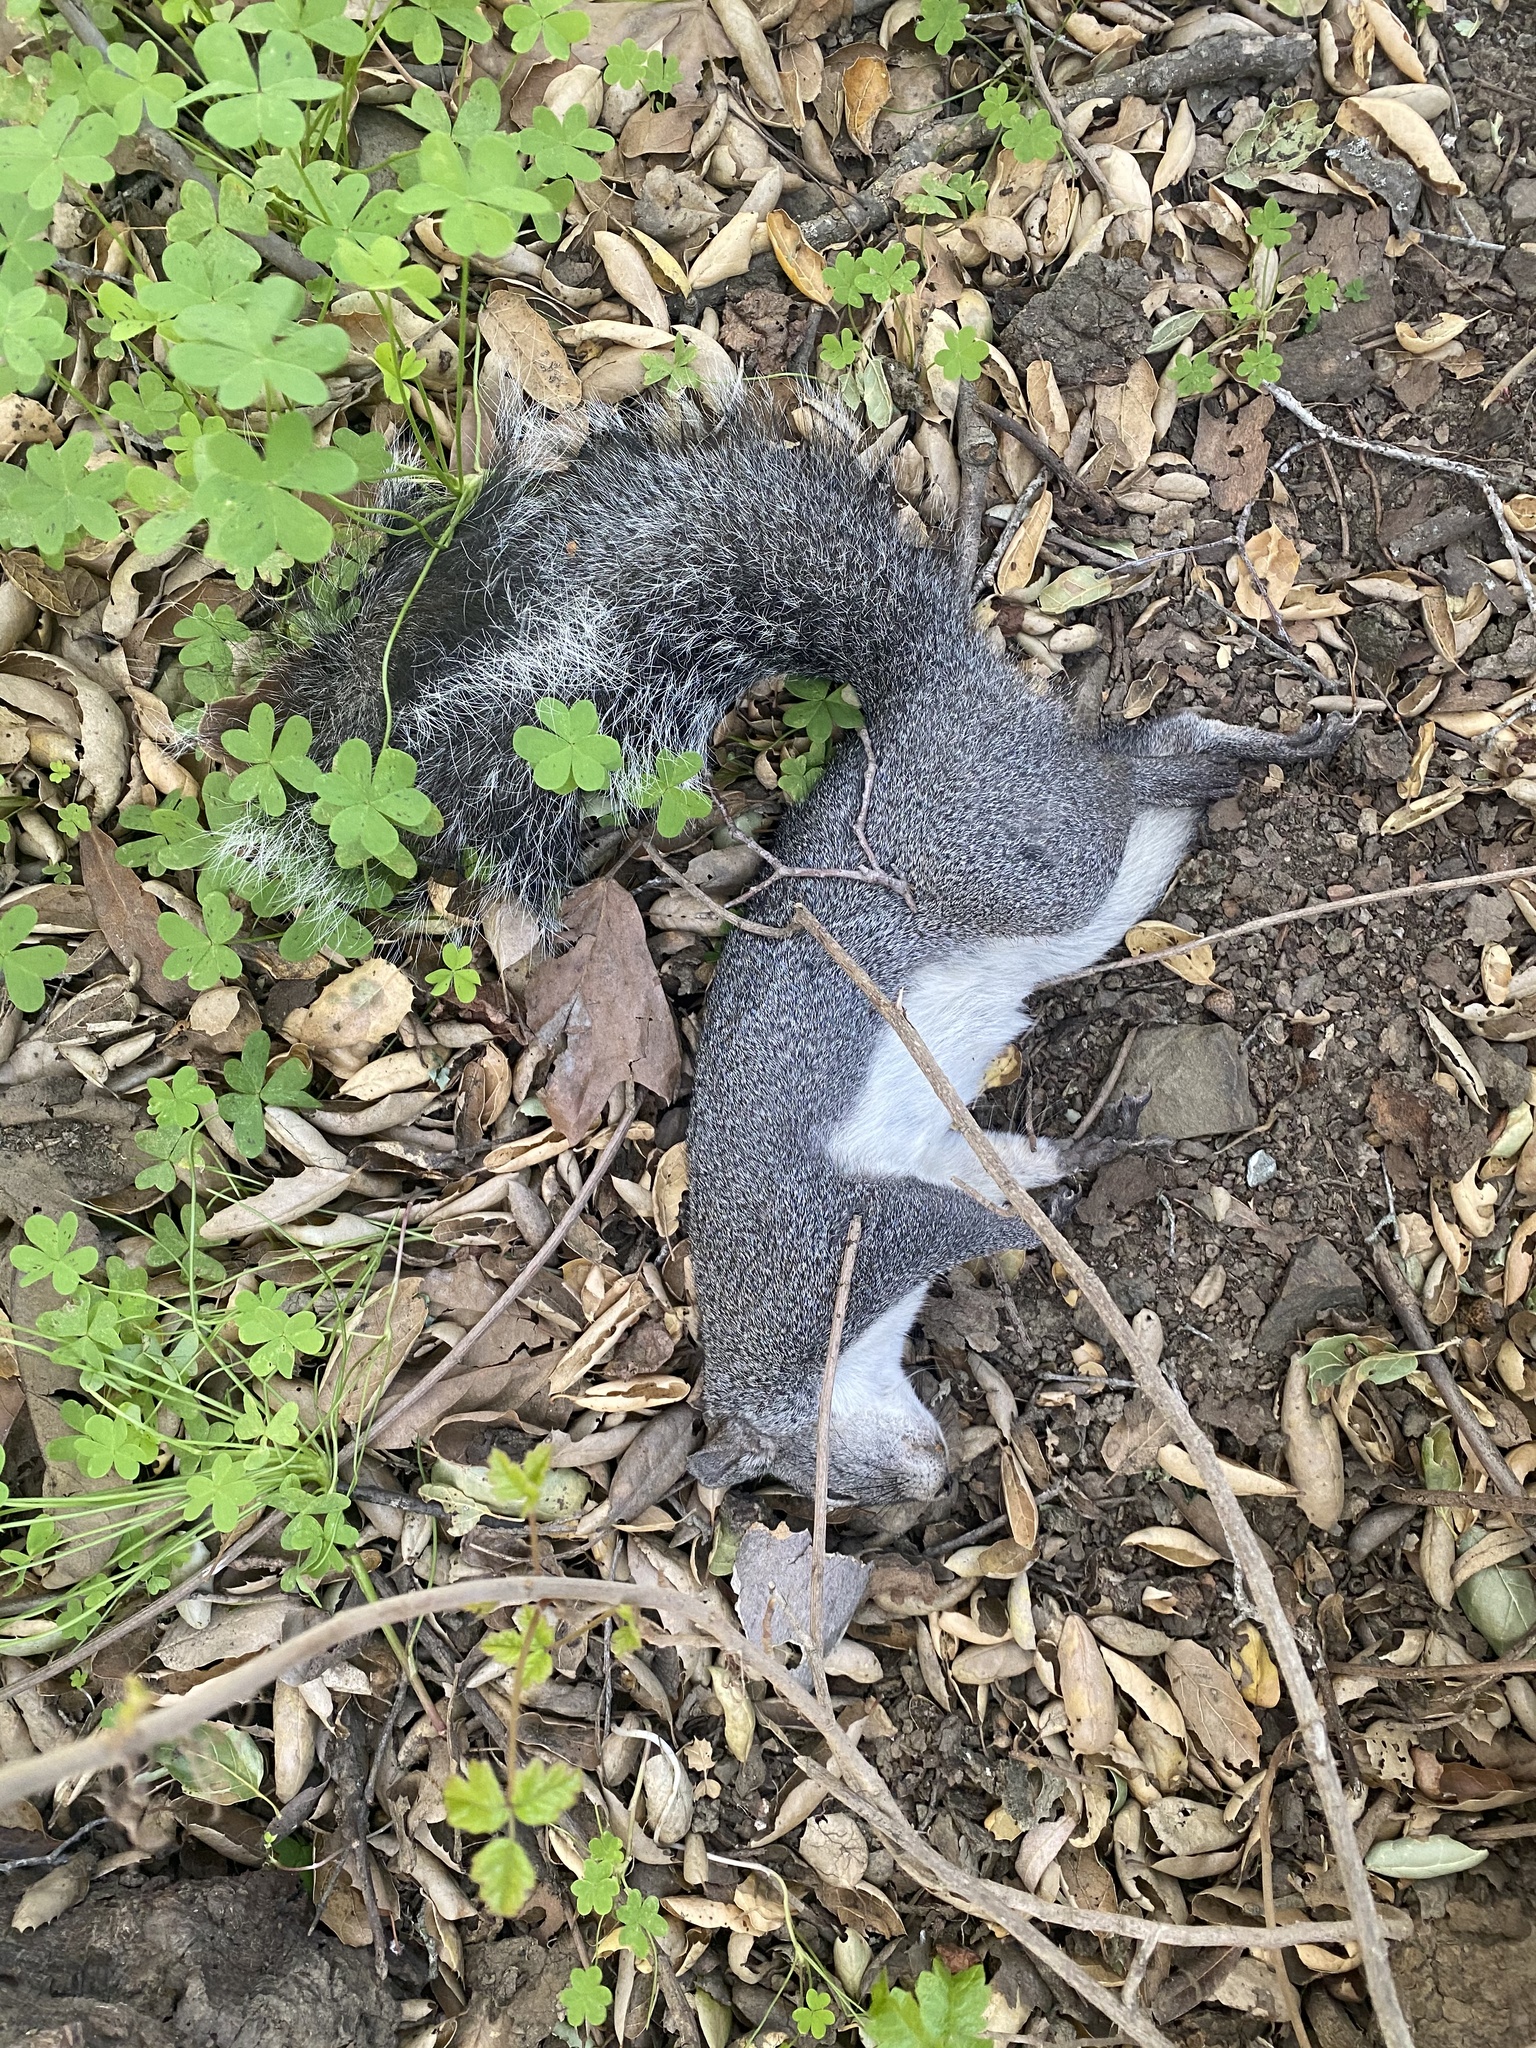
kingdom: Animalia
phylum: Chordata
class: Mammalia
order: Rodentia
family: Sciuridae
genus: Sciurus
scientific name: Sciurus griseus
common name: Western gray squirrel
